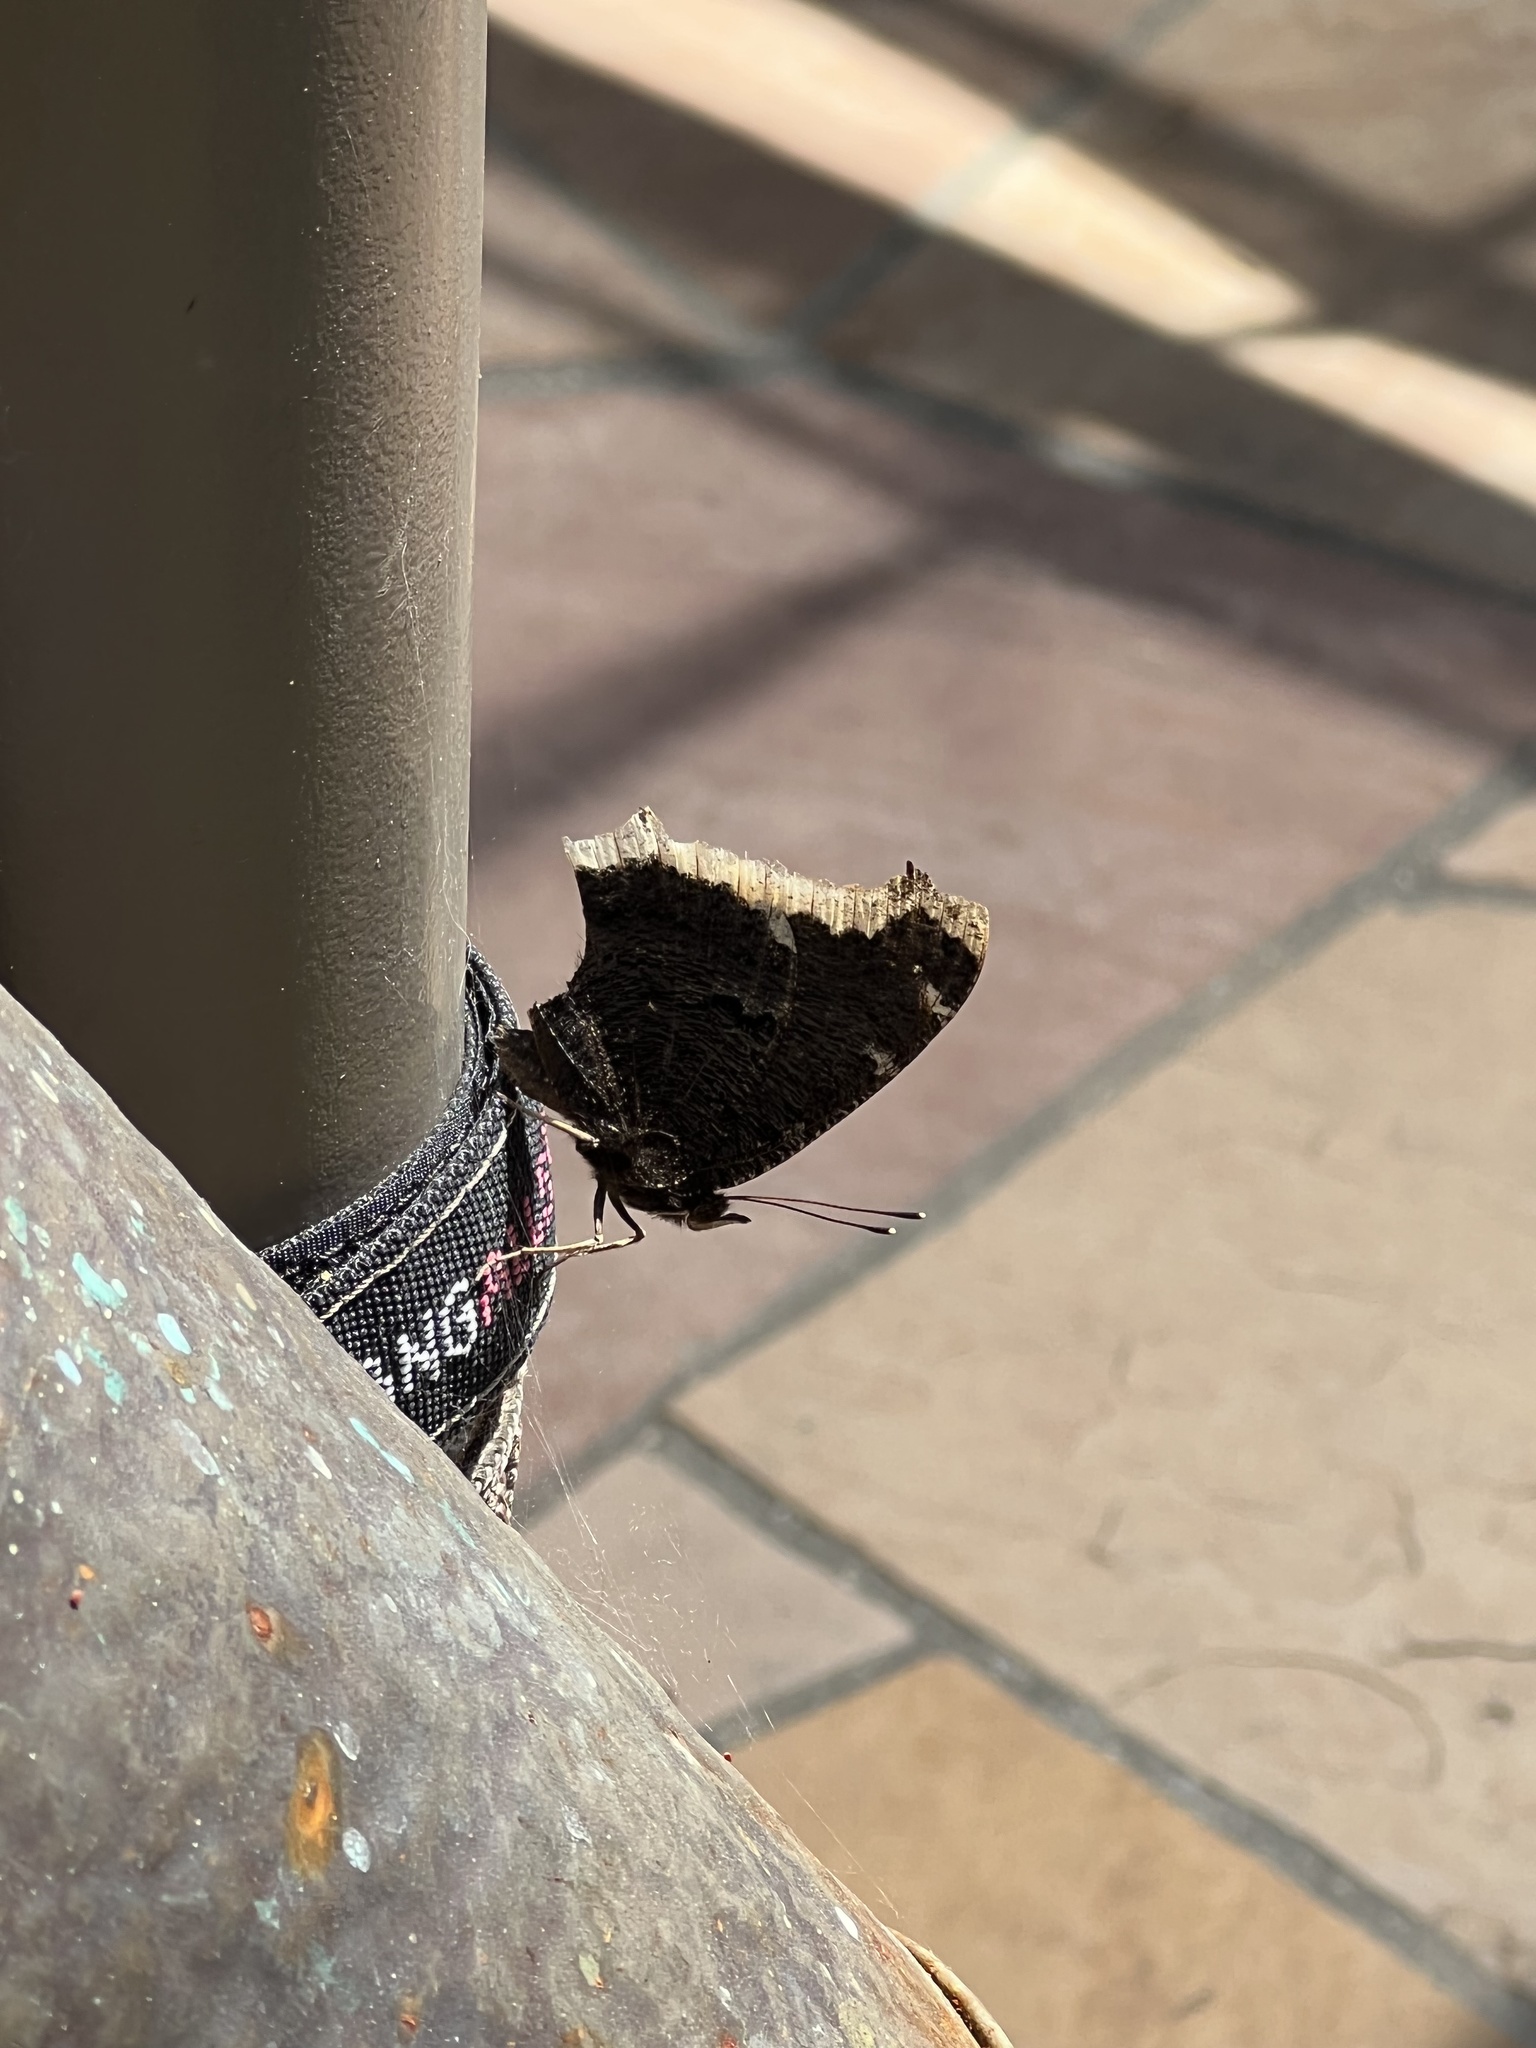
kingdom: Animalia
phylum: Arthropoda
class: Insecta
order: Lepidoptera
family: Nymphalidae
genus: Nymphalis
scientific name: Nymphalis antiopa
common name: Camberwell beauty
